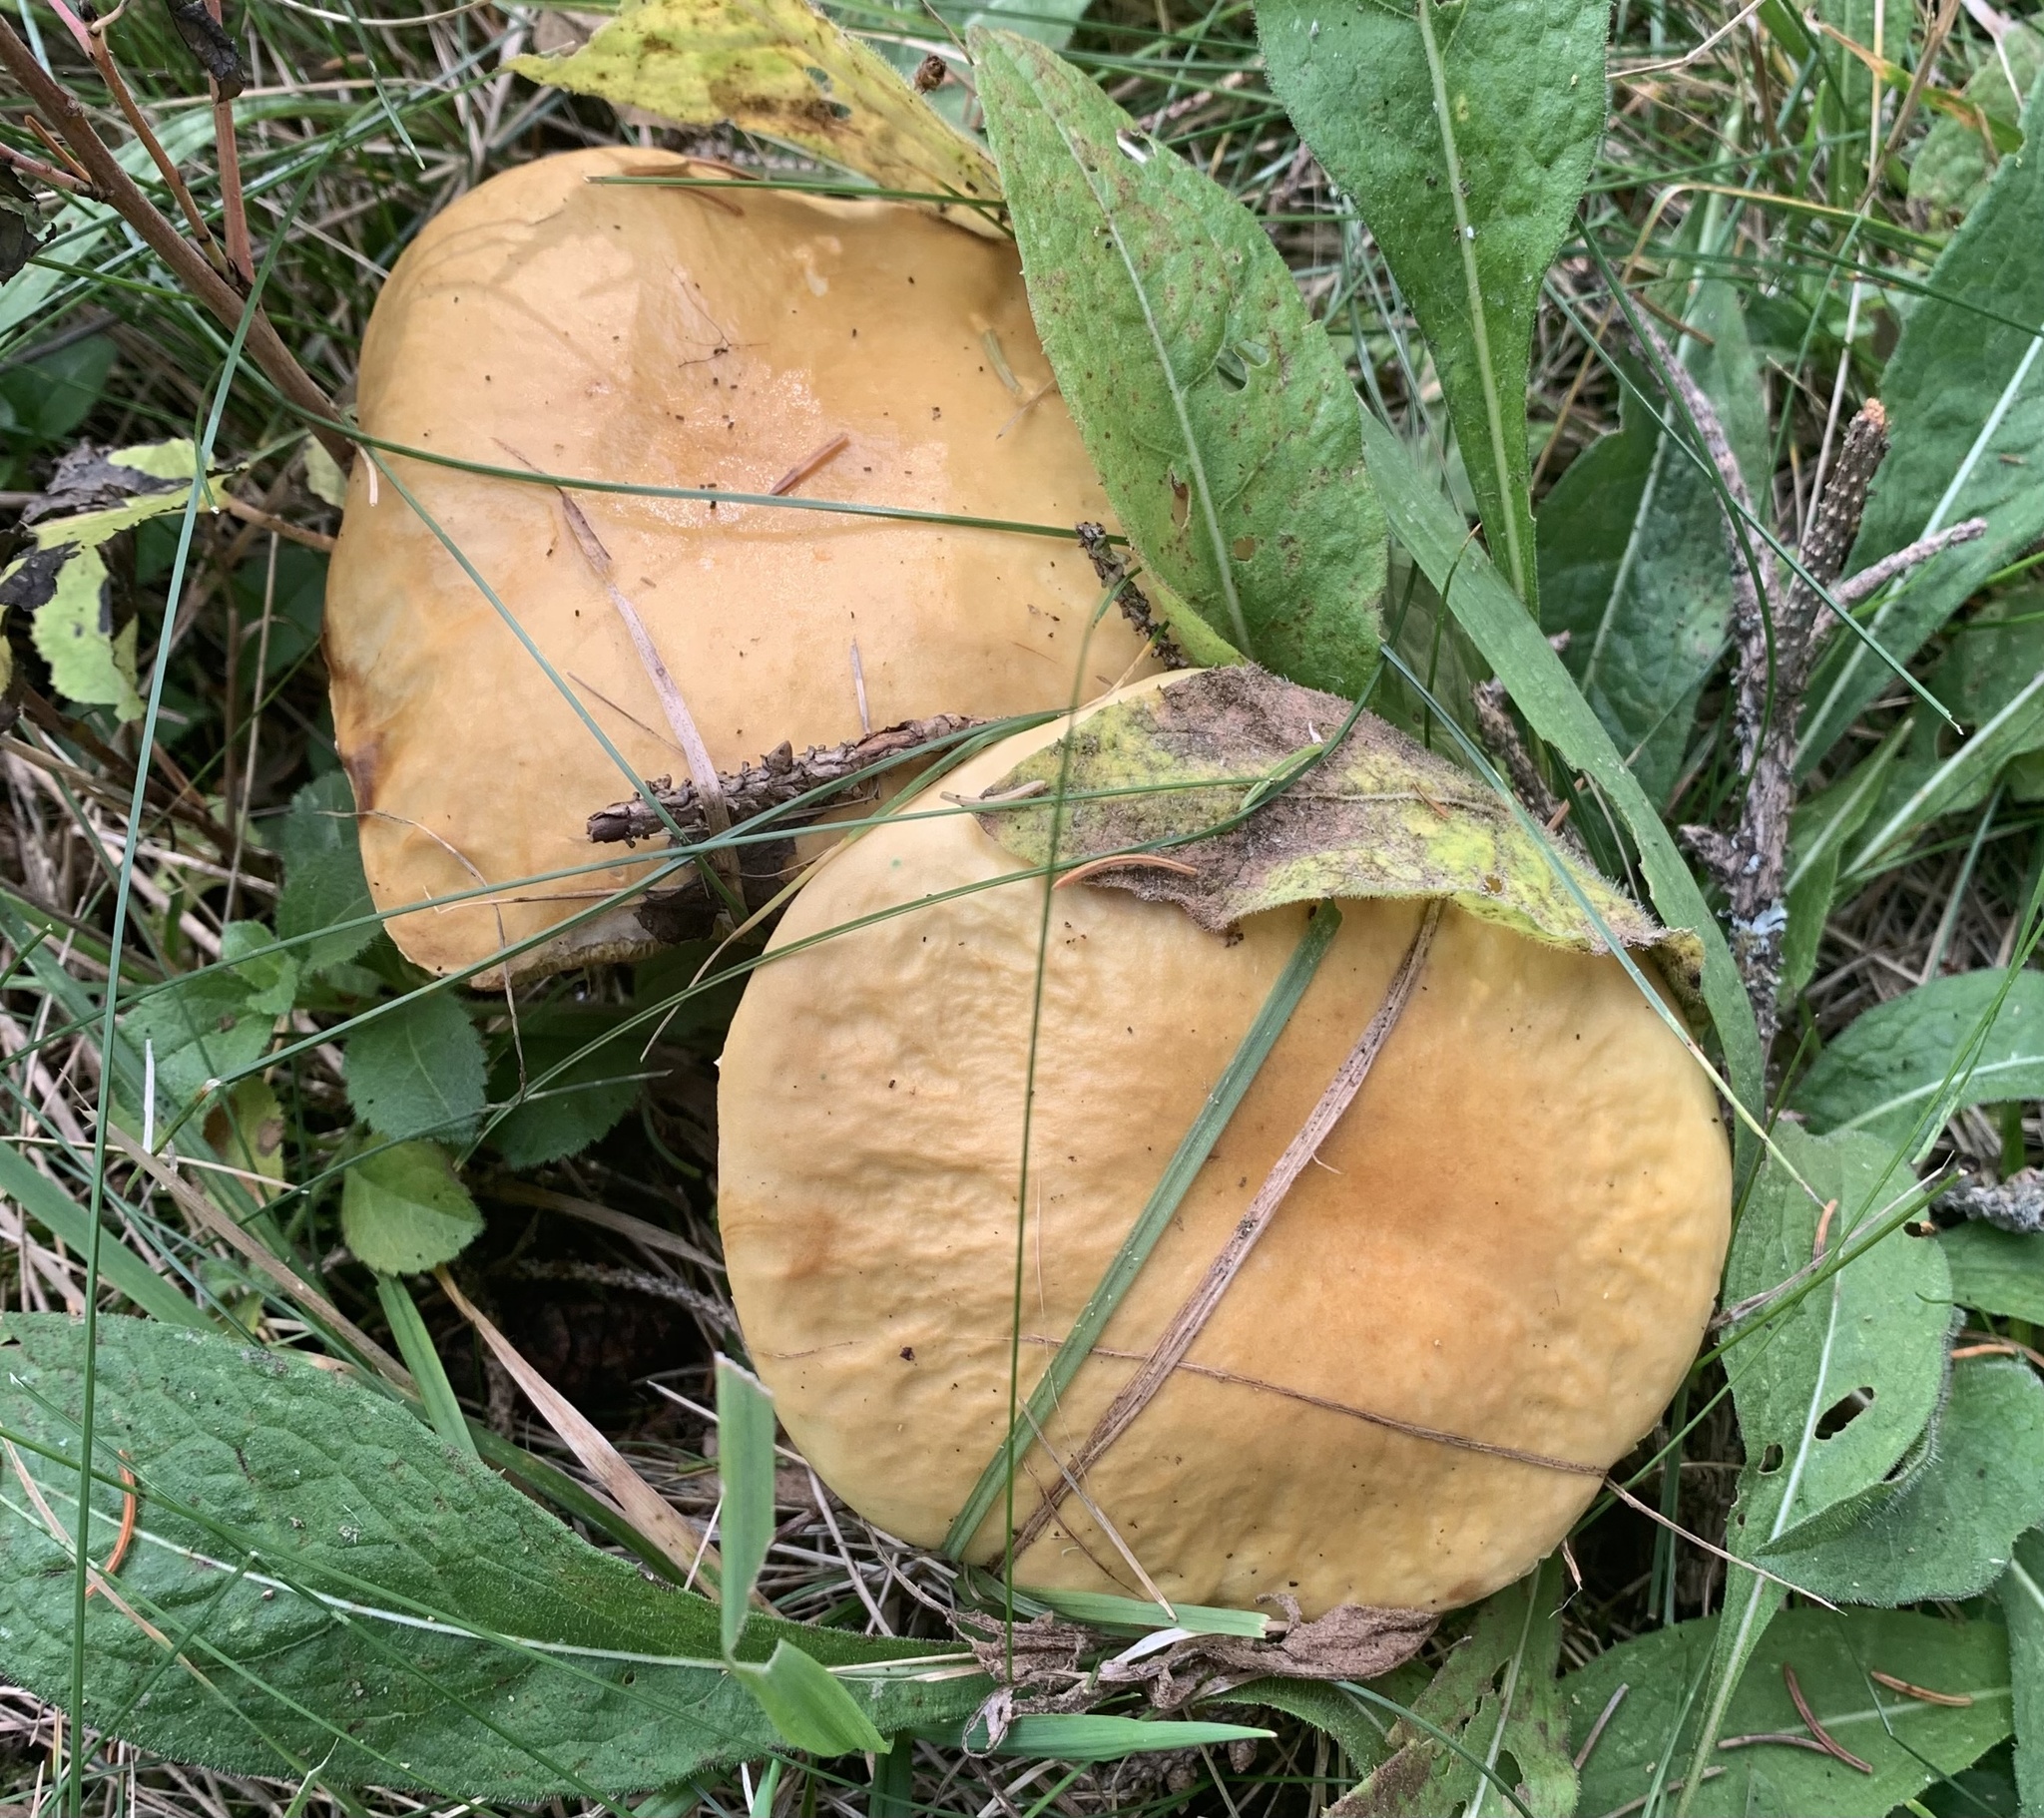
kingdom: Fungi
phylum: Basidiomycota
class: Agaricomycetes
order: Boletales
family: Boletaceae
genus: Boletus
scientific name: Boletus chippewaensis
